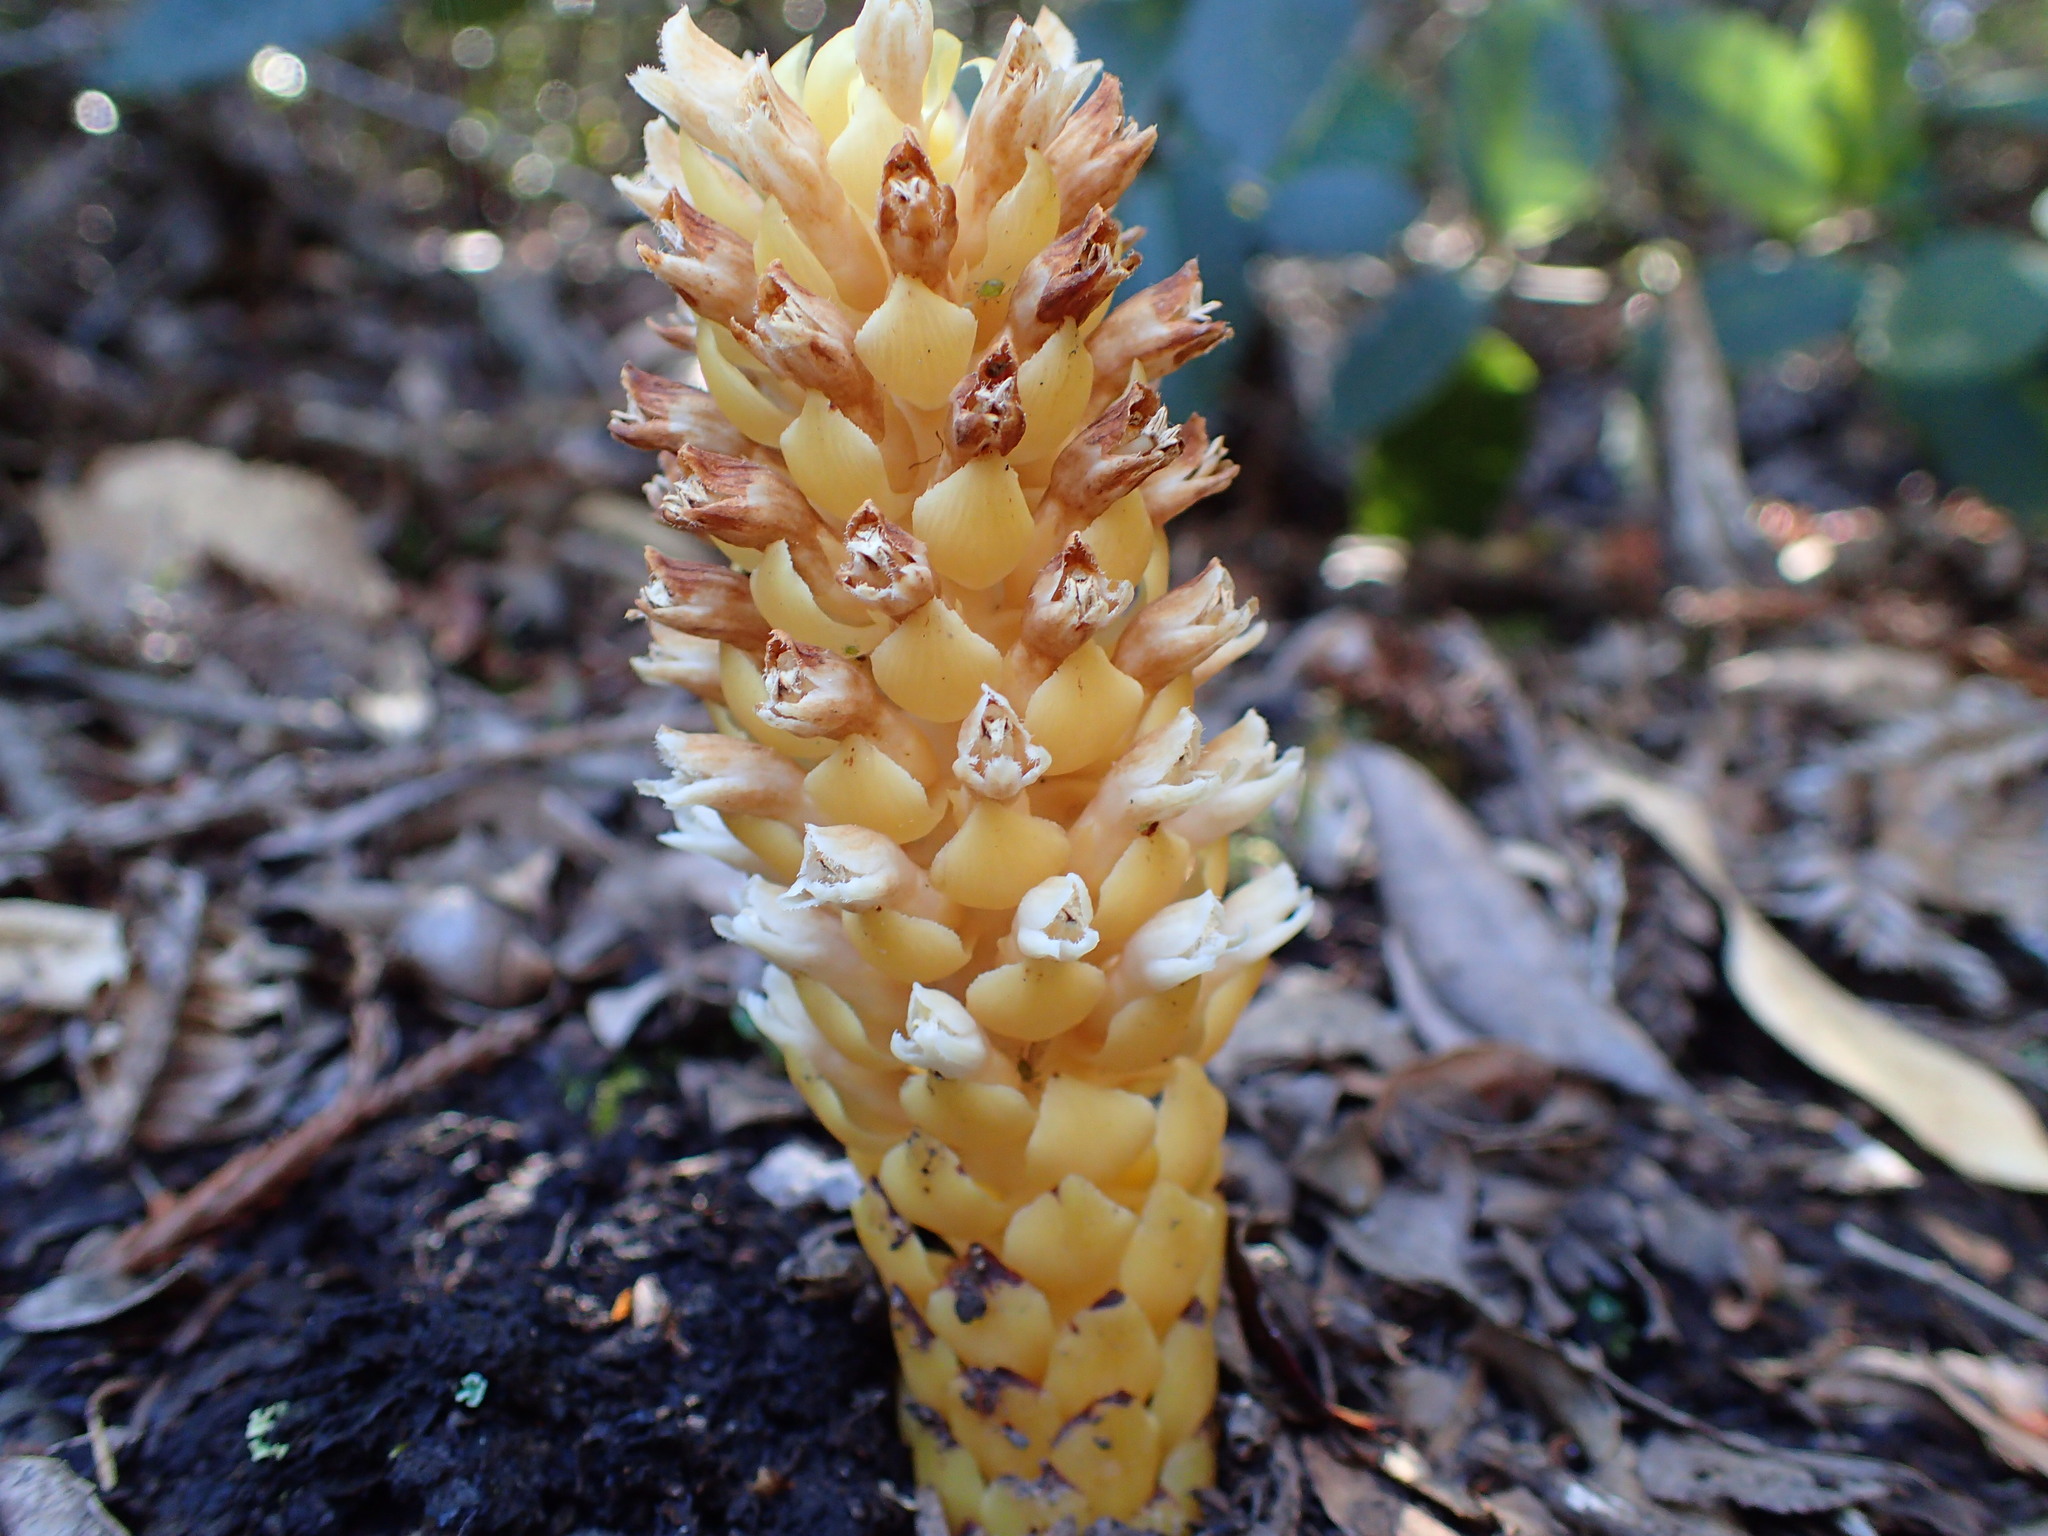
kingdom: Plantae
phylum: Tracheophyta
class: Magnoliopsida
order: Lamiales
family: Orobanchaceae
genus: Kopsiopsis
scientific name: Kopsiopsis hookeri
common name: Hooker's groundcone
